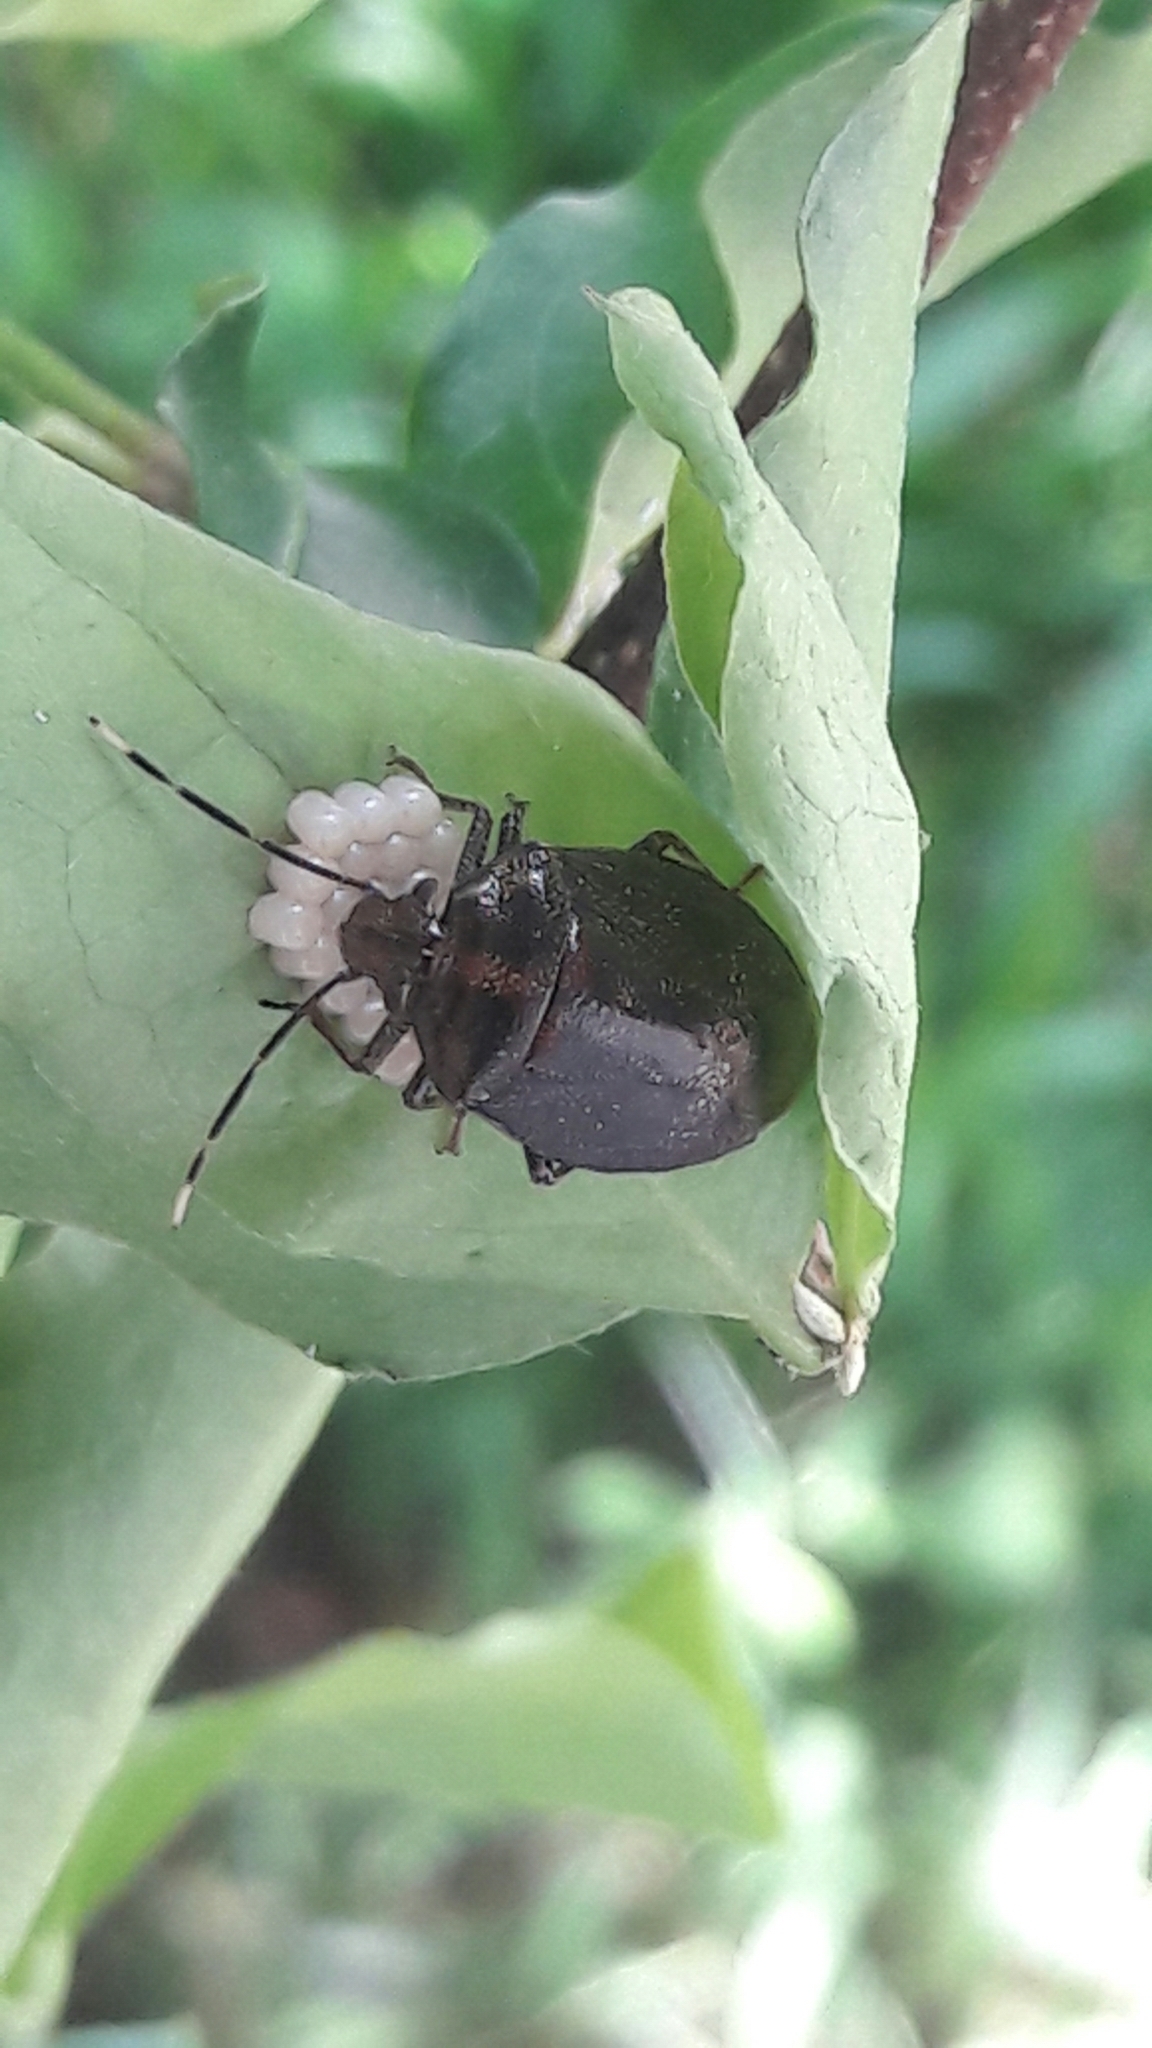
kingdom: Animalia
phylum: Arthropoda
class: Insecta
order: Hemiptera
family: Pentatomidae
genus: Antiteuchus
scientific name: Antiteuchus tripterus
